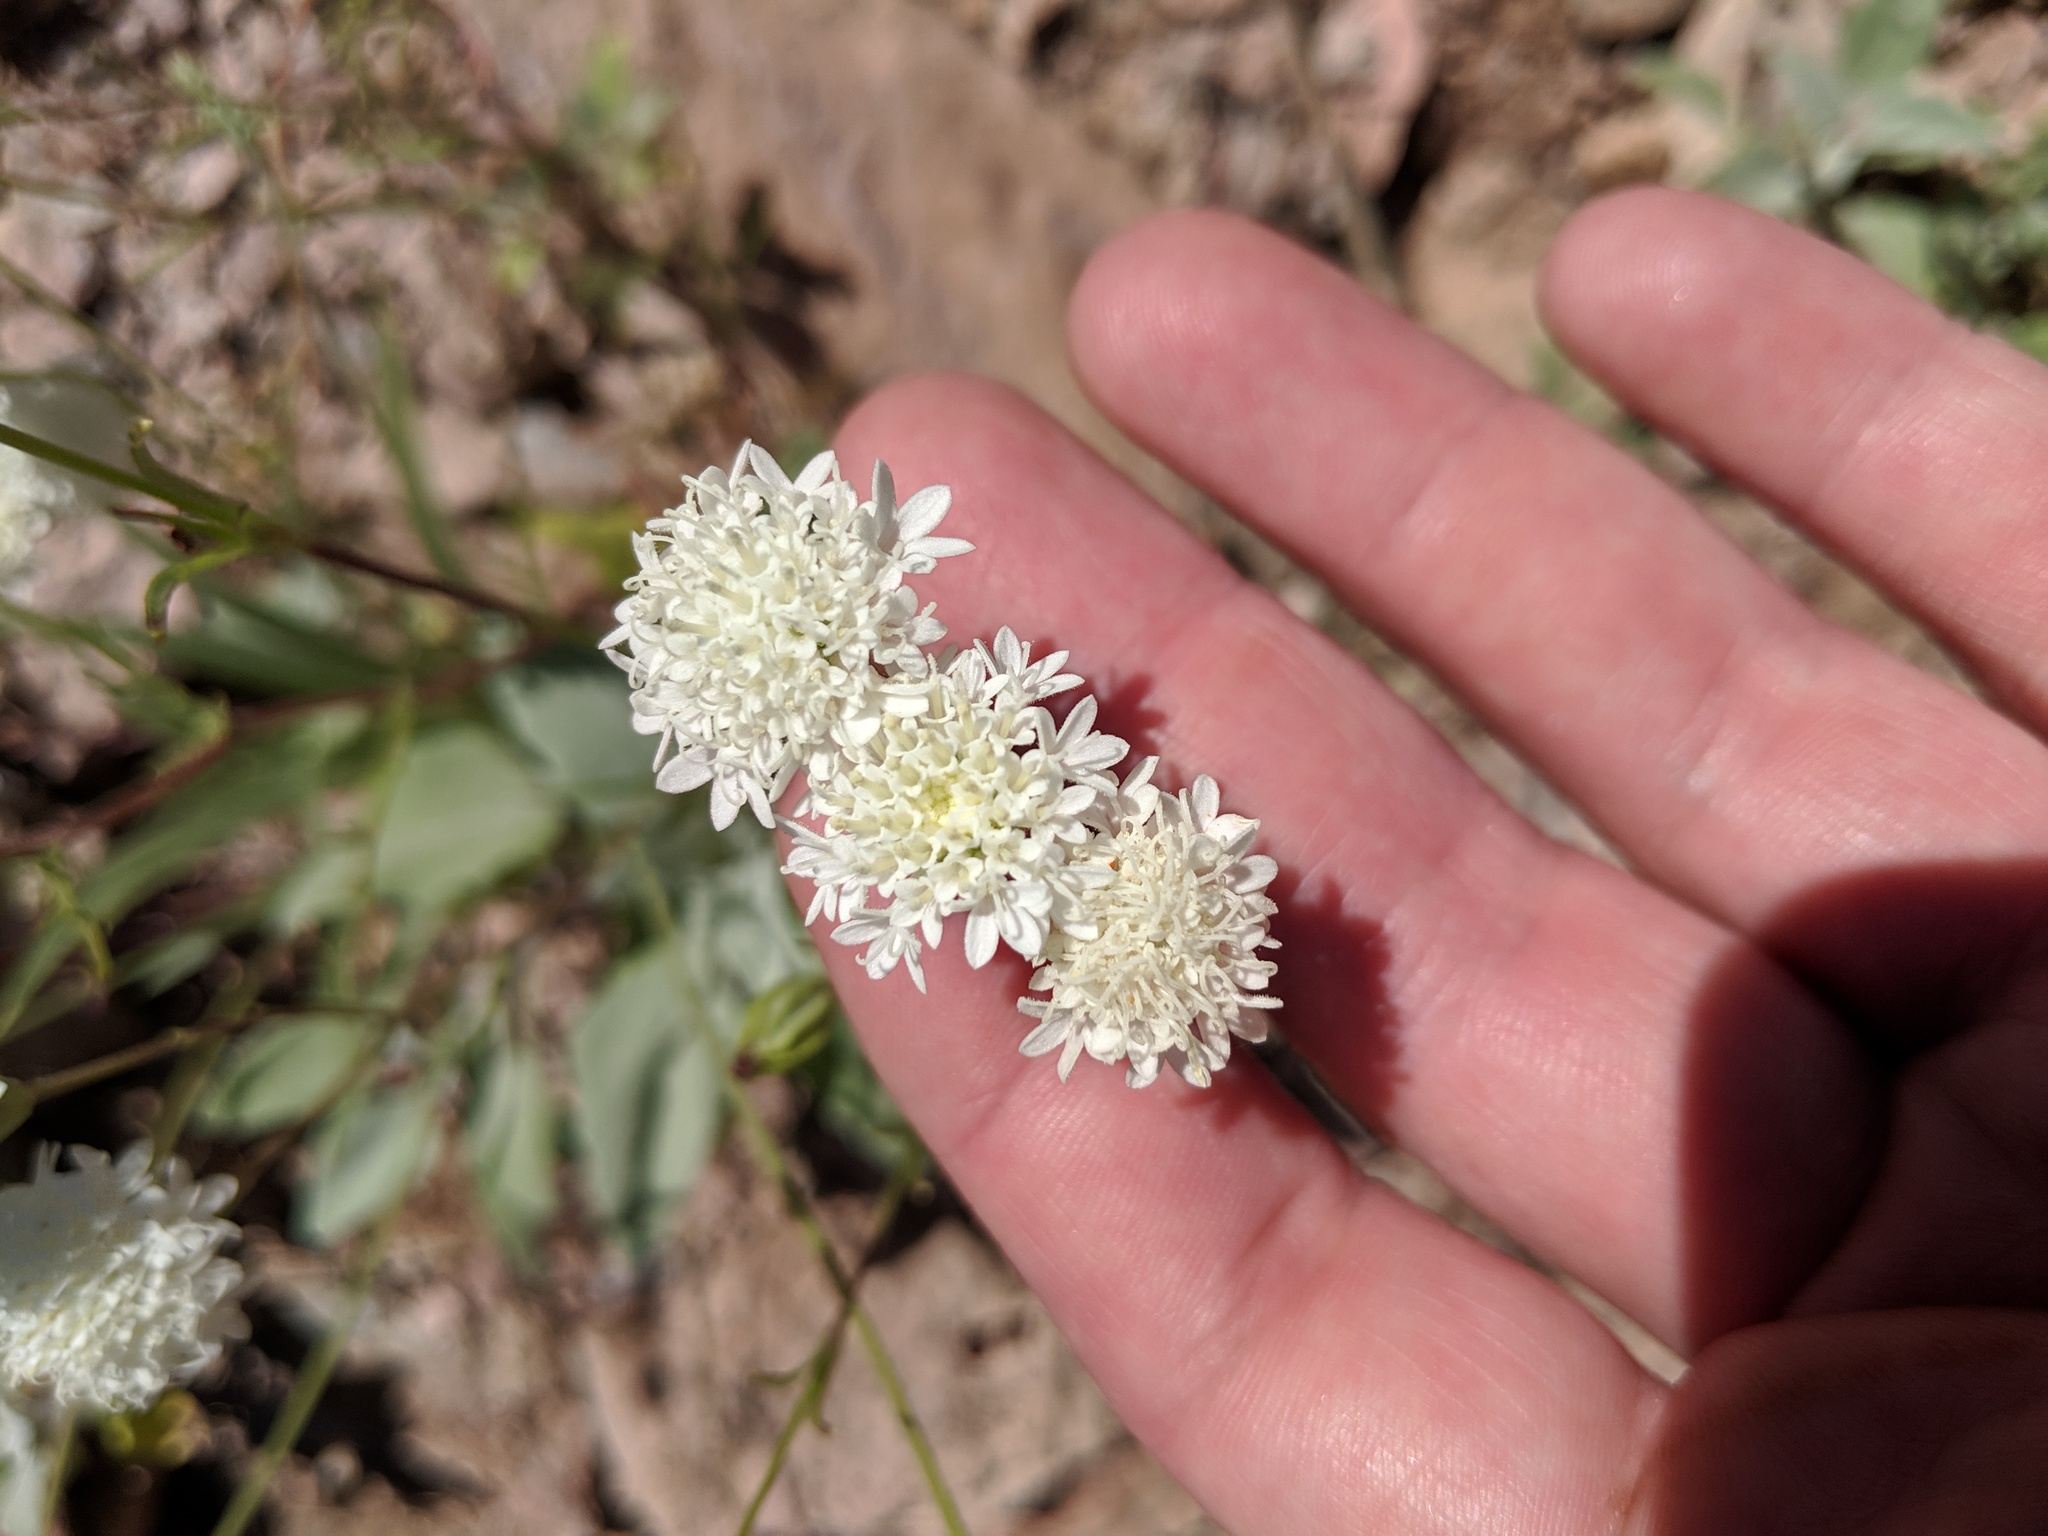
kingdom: Plantae
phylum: Tracheophyta
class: Magnoliopsida
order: Asterales
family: Asteraceae
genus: Chaenactis
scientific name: Chaenactis stevioides
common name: Desert pincushion
